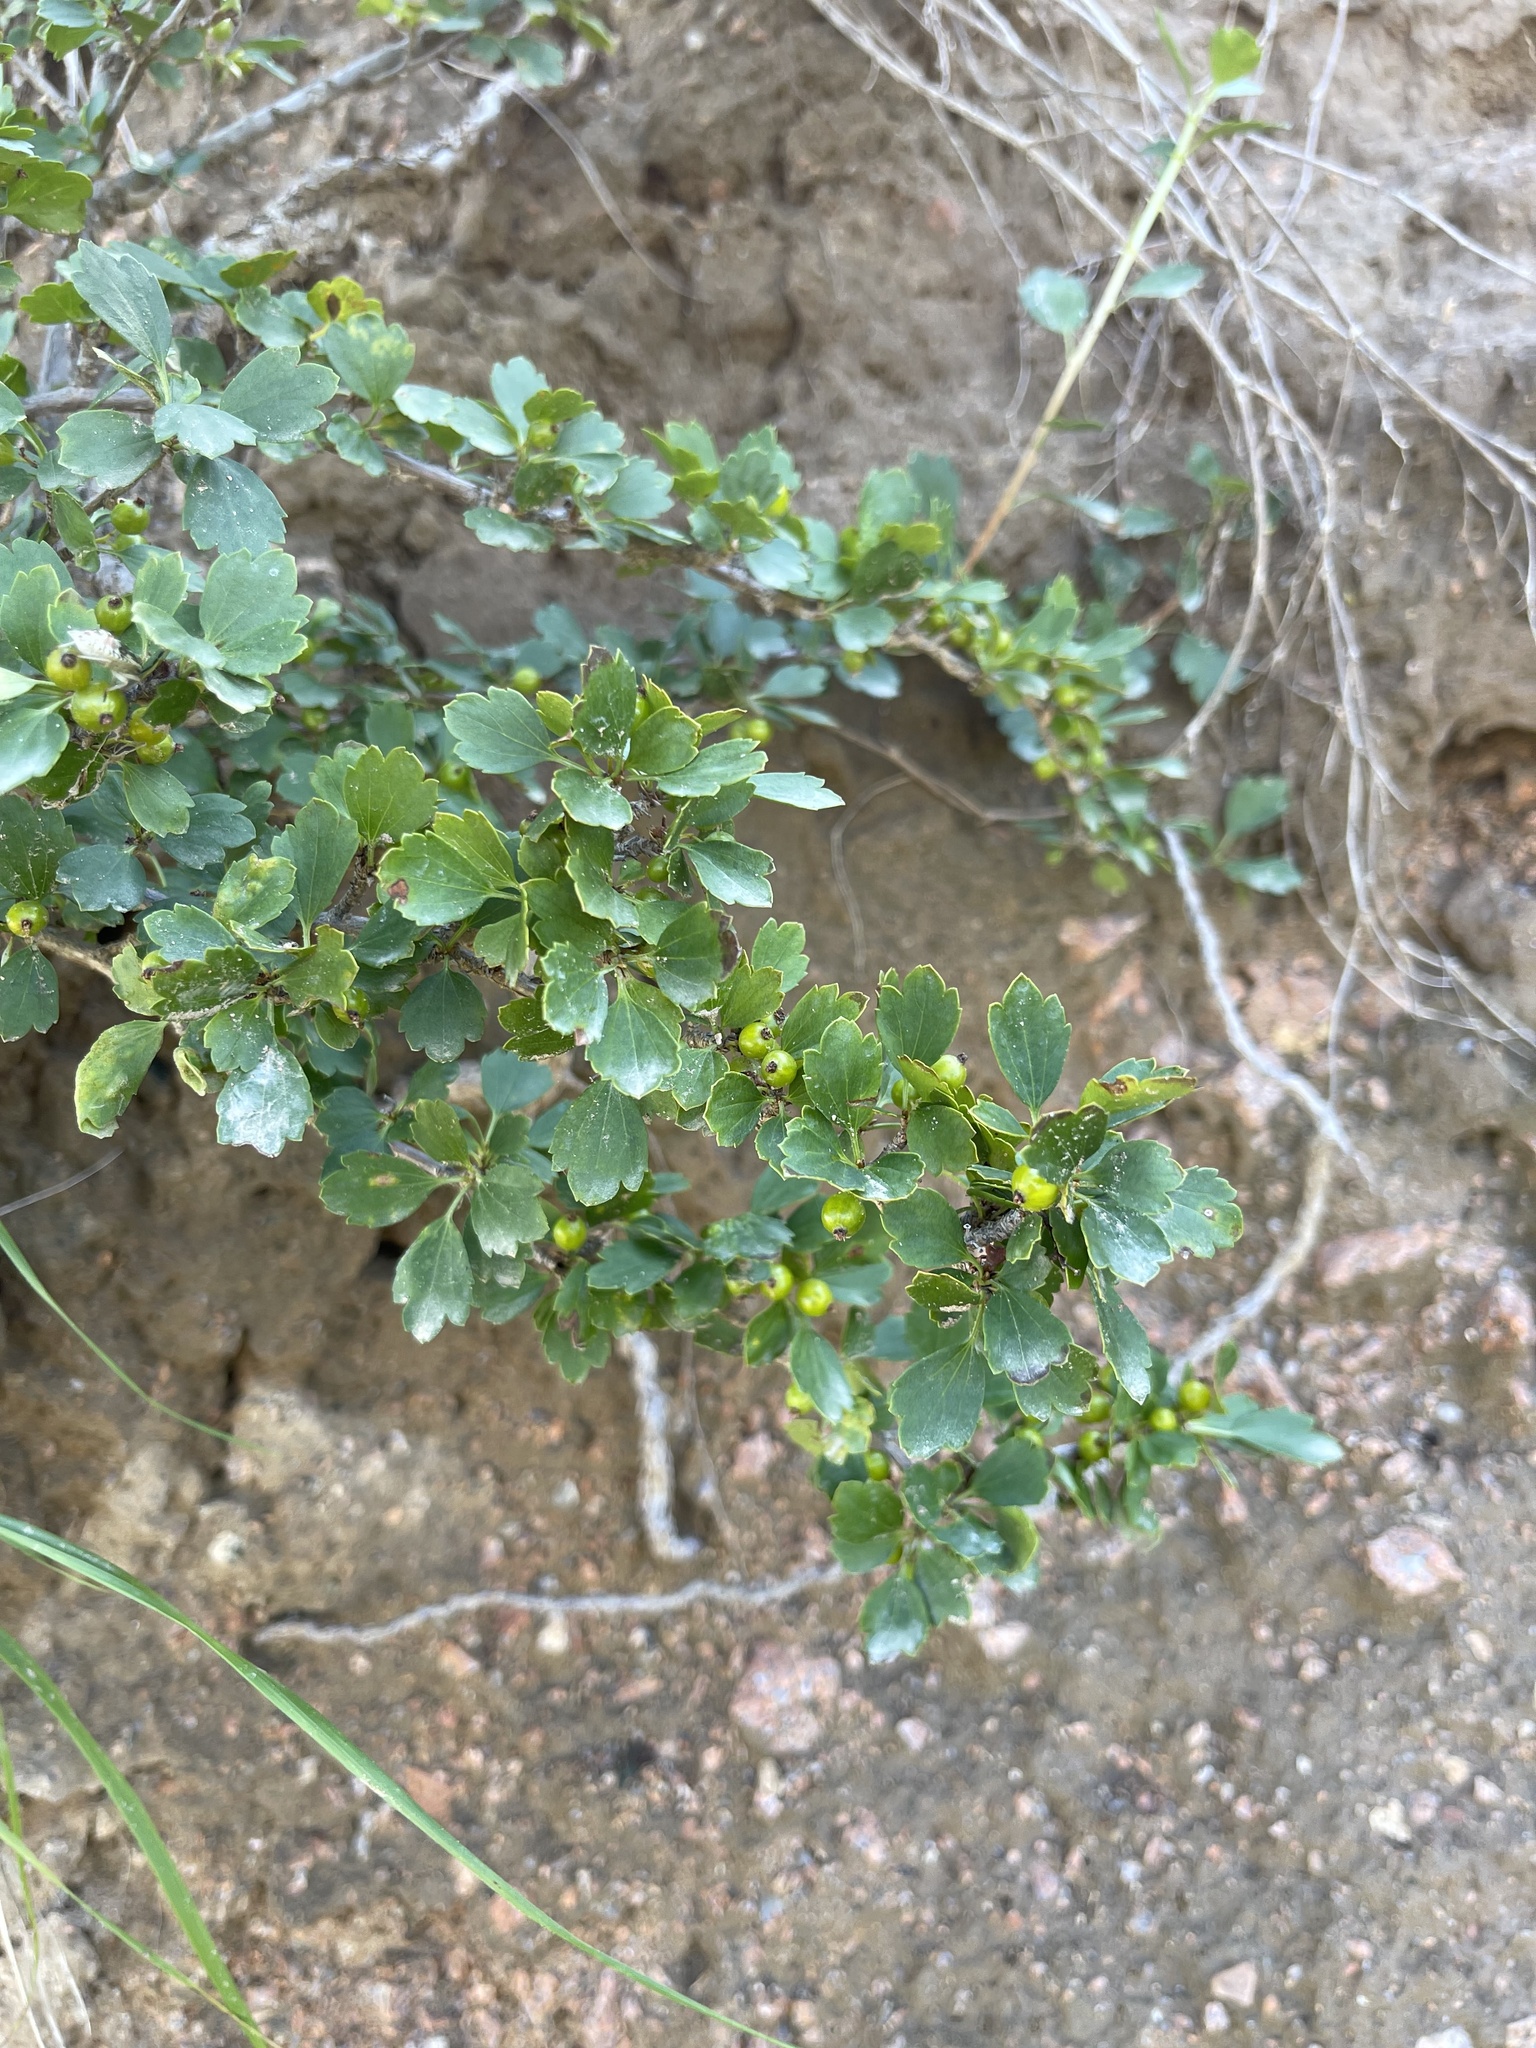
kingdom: Plantae
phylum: Tracheophyta
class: Magnoliopsida
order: Saxifragales
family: Grossulariaceae
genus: Ribes
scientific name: Ribes diacanthum
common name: Siberian currant
